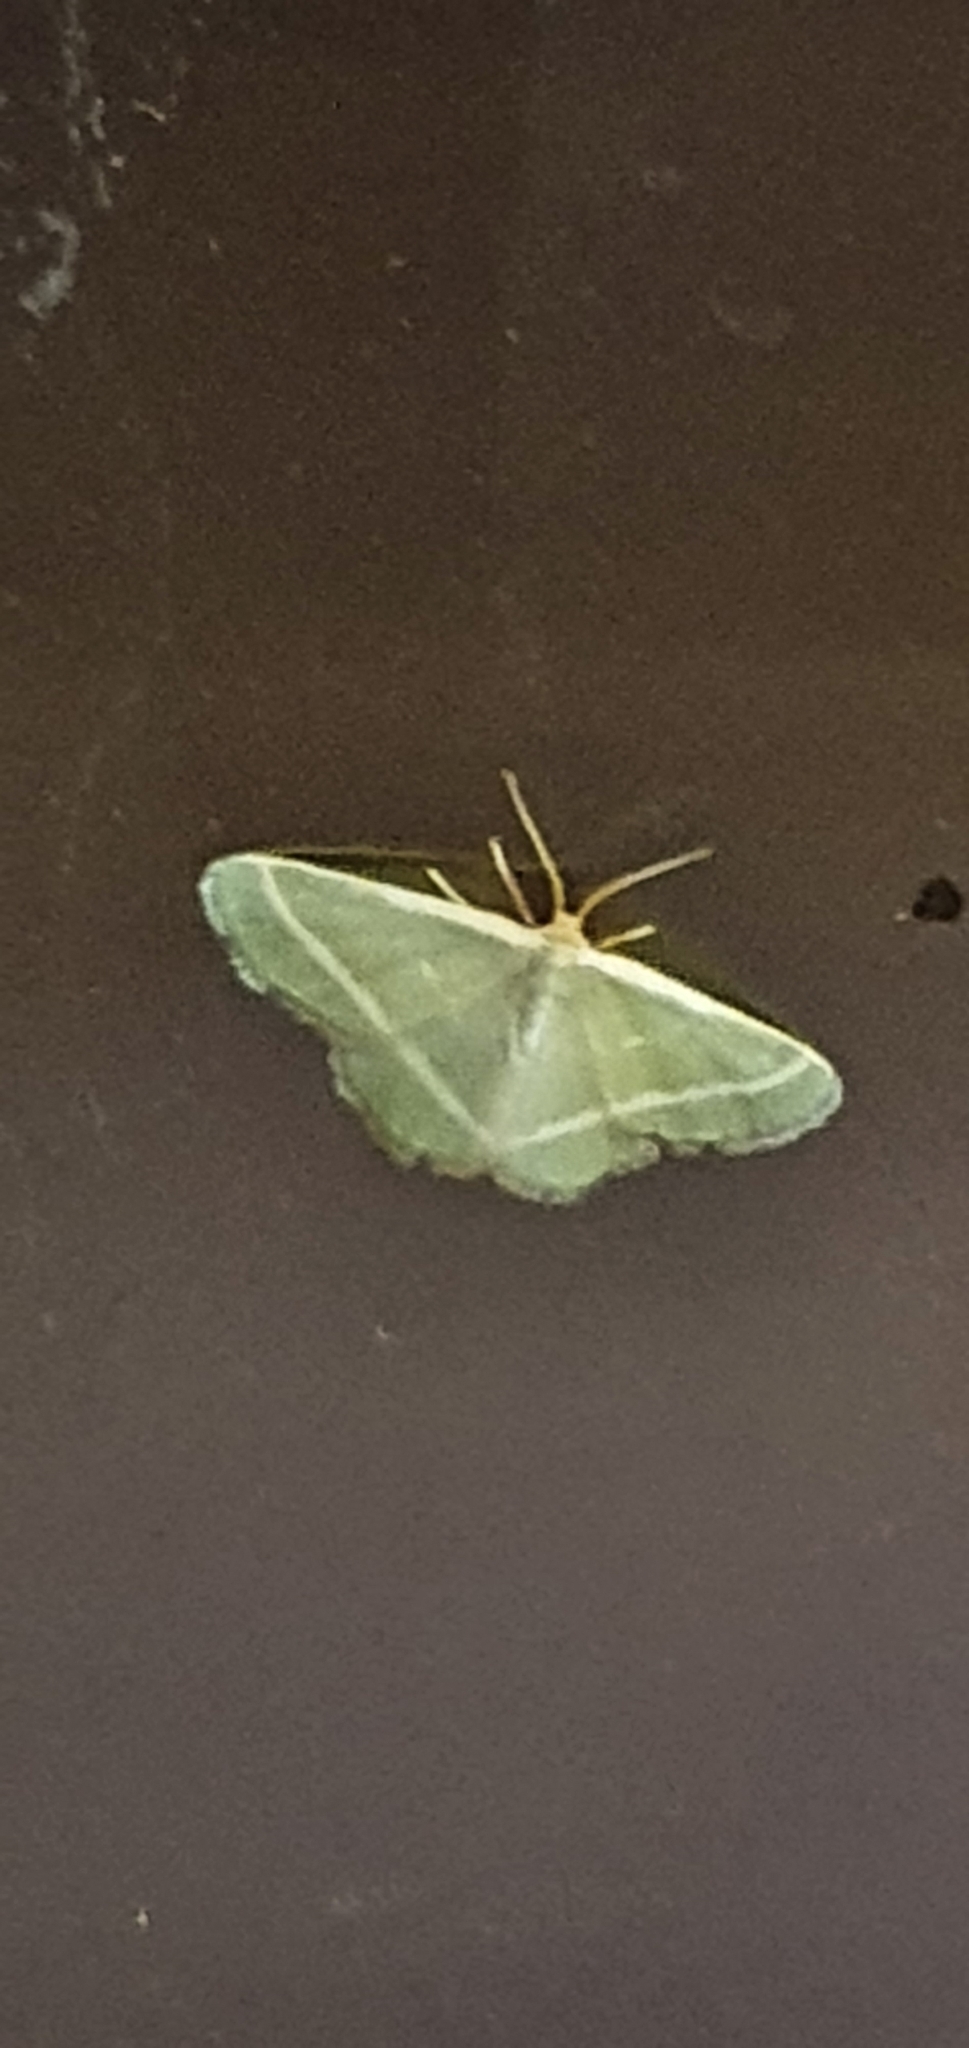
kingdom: Animalia
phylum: Arthropoda
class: Insecta
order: Lepidoptera
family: Geometridae
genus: Mixocera
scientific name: Mixocera latilineata
